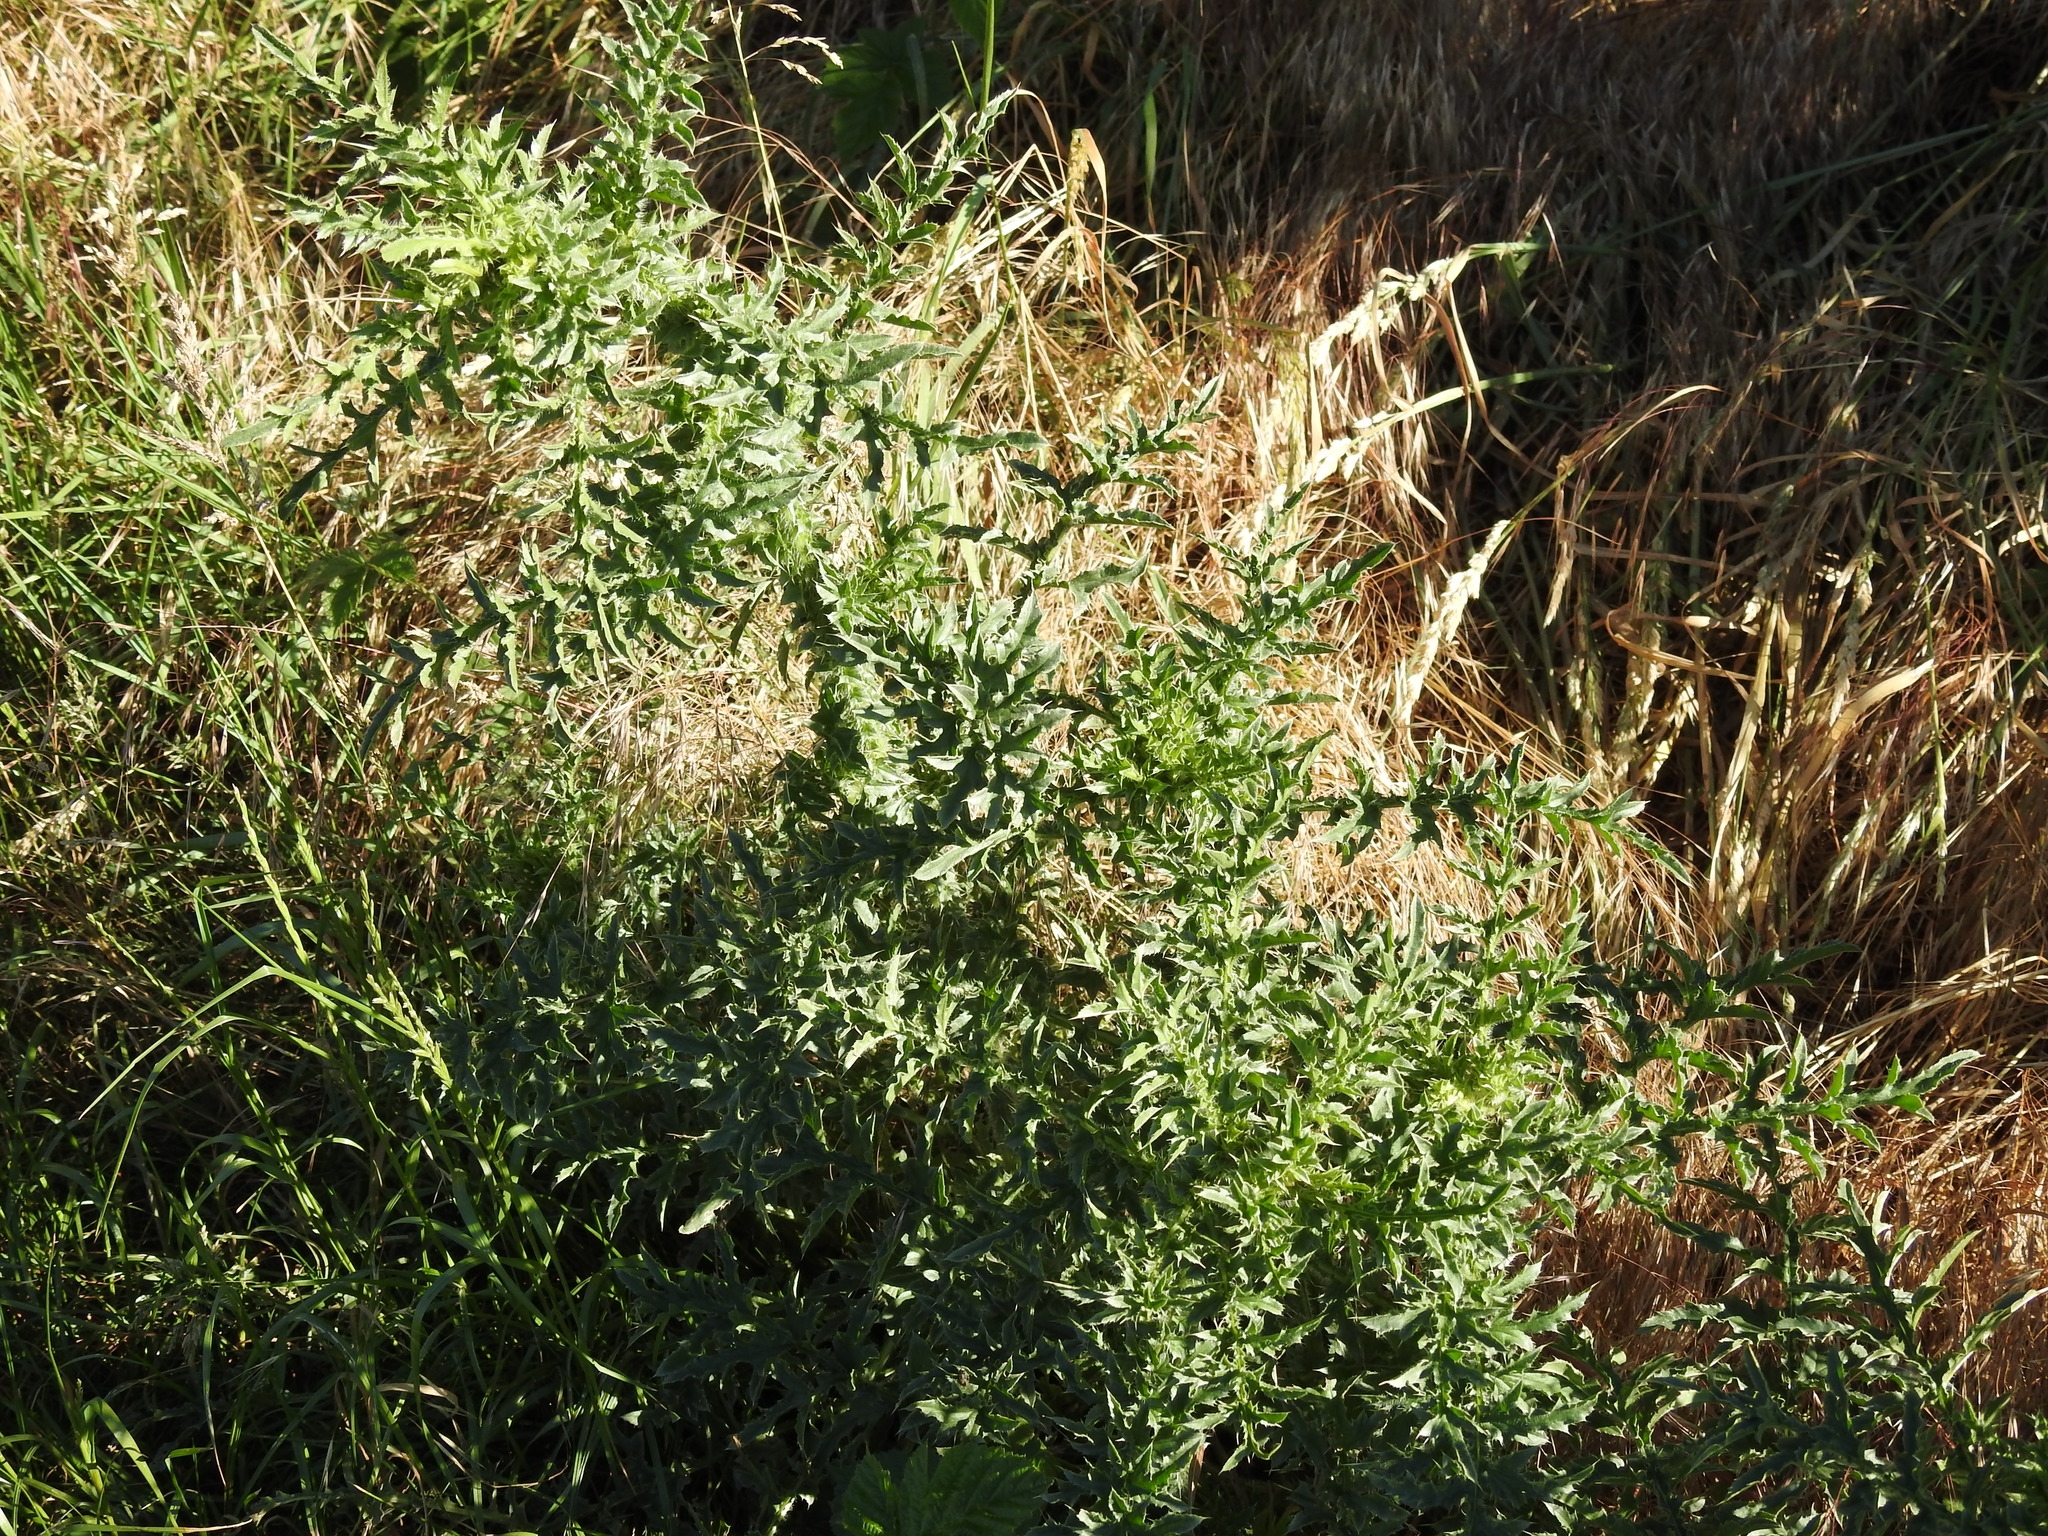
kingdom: Plantae
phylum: Tracheophyta
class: Magnoliopsida
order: Asterales
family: Asteraceae
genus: Carduus
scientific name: Carduus acanthoides
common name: Plumeless thistle
